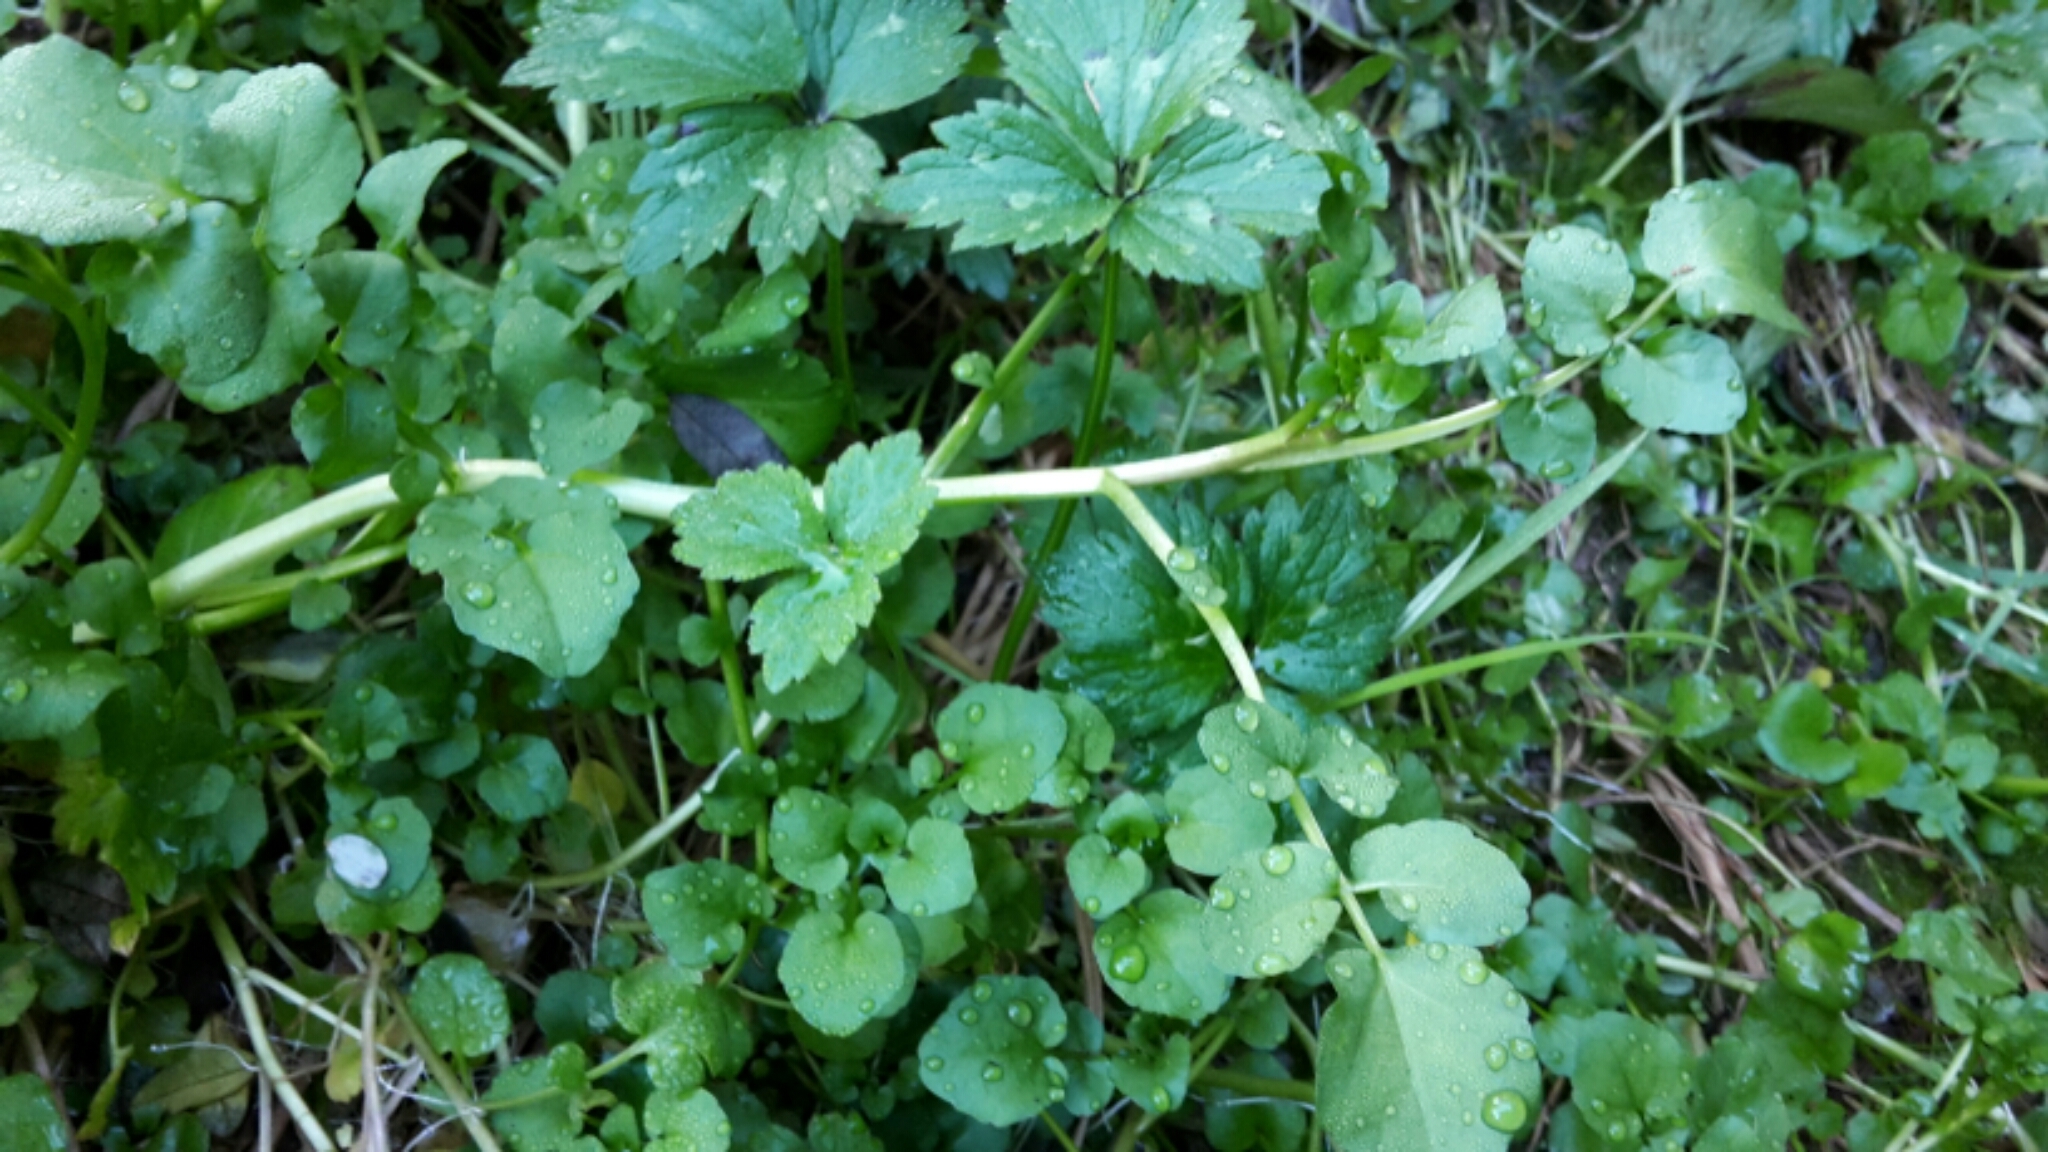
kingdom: Plantae
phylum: Tracheophyta
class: Magnoliopsida
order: Brassicales
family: Brassicaceae
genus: Nasturtium
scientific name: Nasturtium officinale
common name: Watercress
